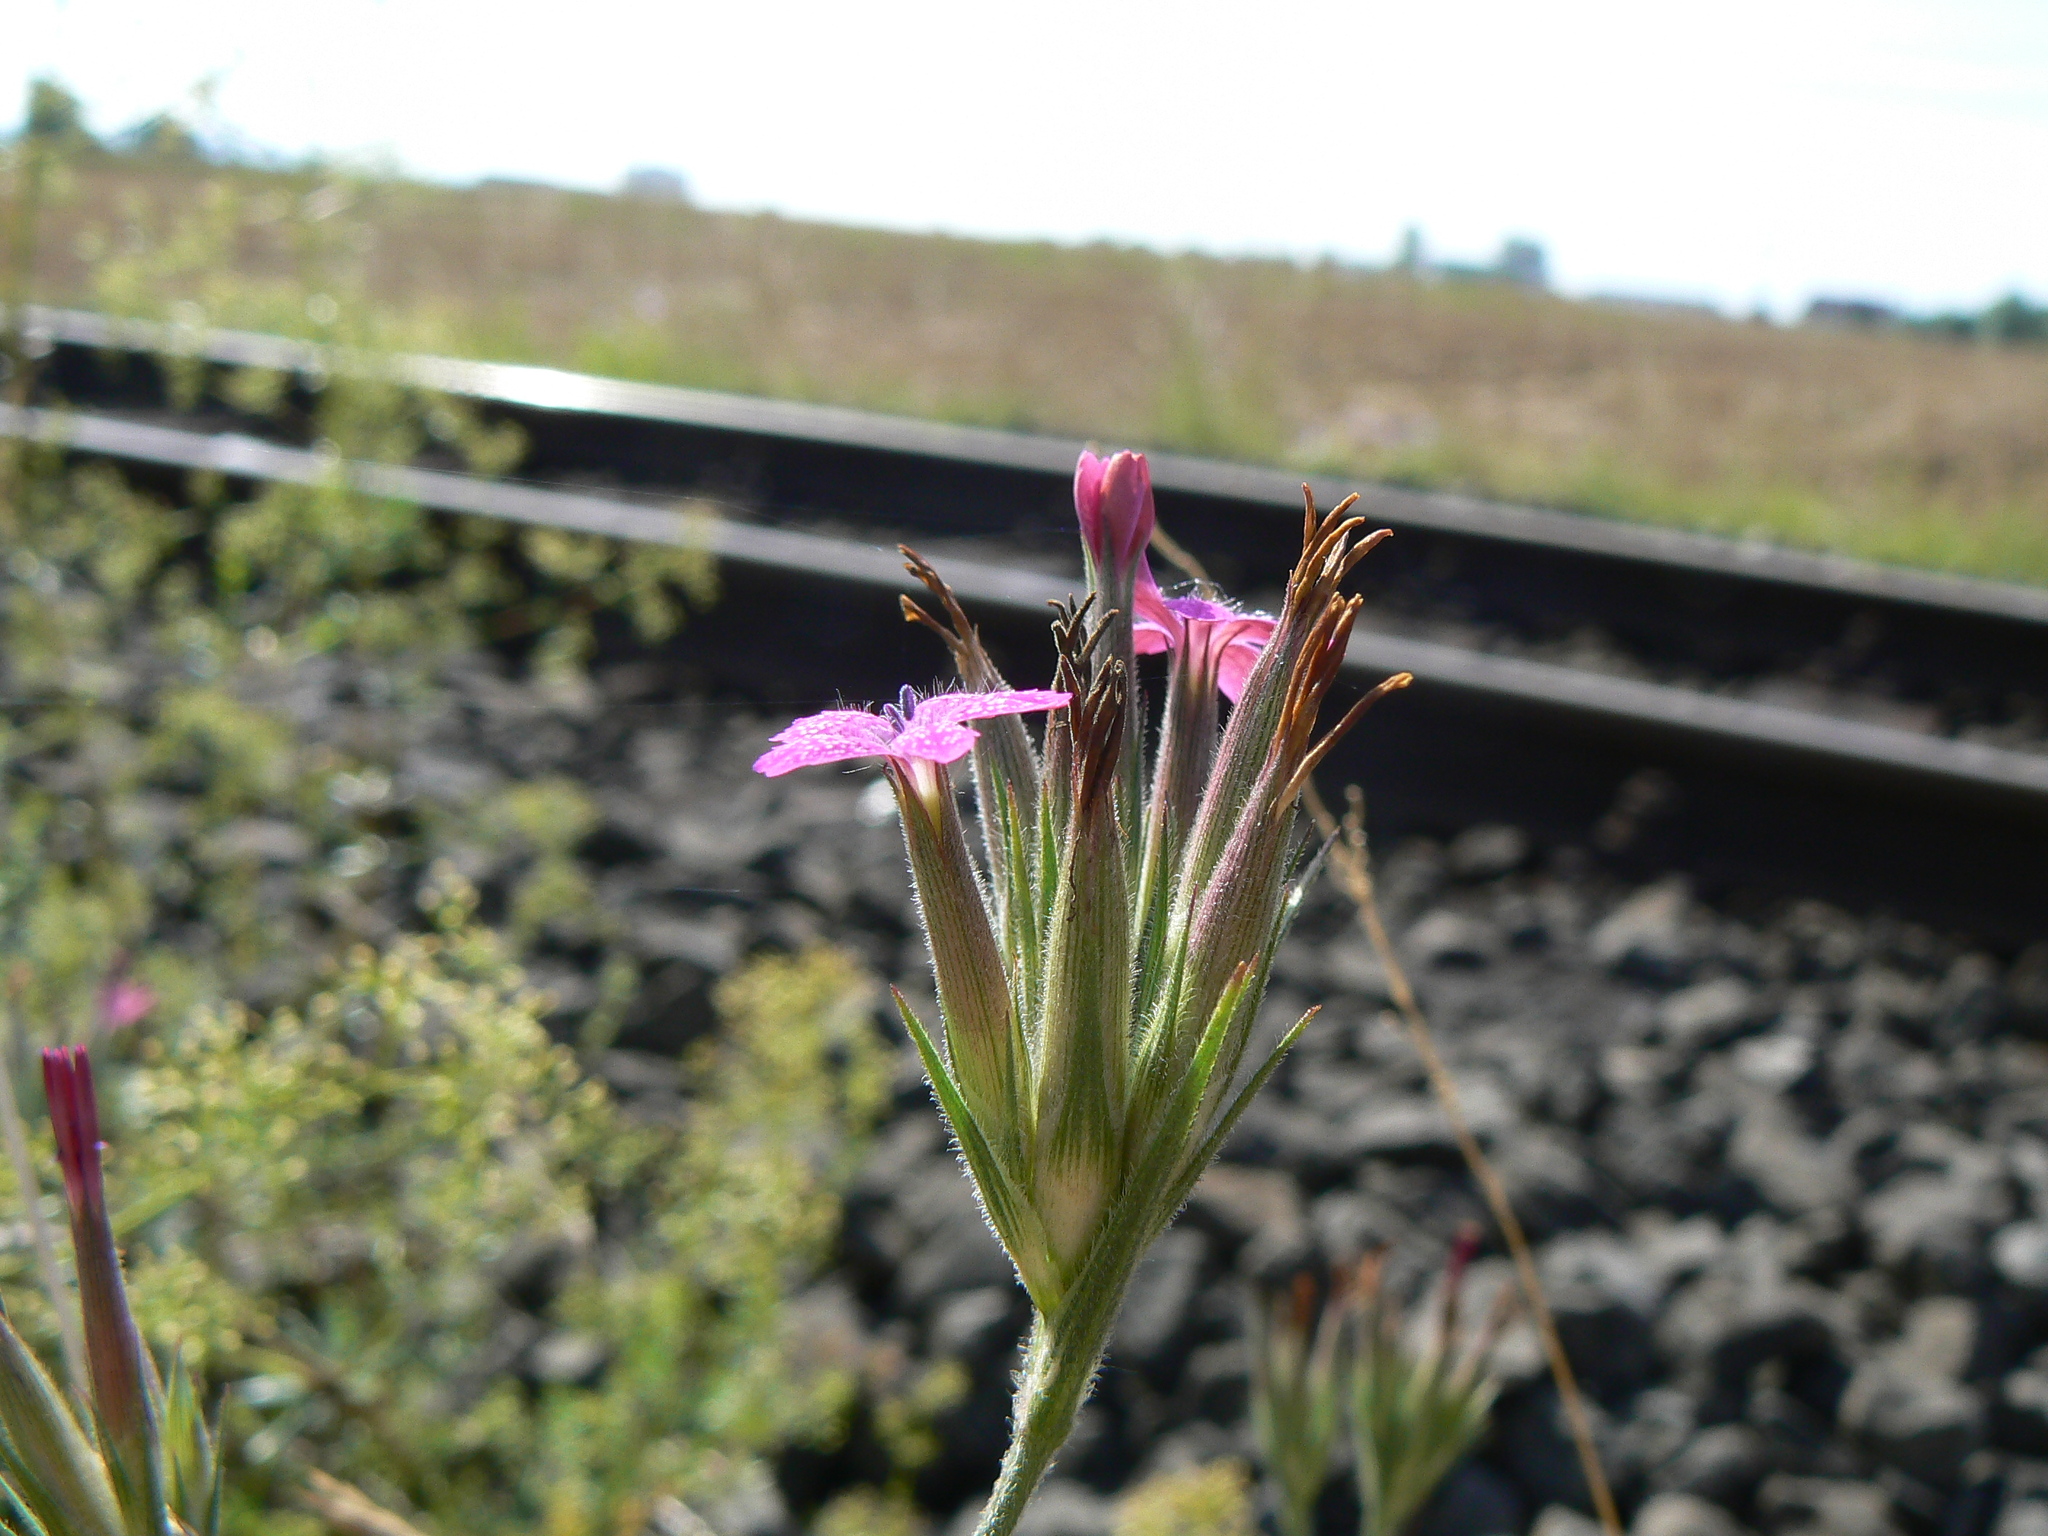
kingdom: Plantae
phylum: Tracheophyta
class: Magnoliopsida
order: Caryophyllales
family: Caryophyllaceae
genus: Dianthus
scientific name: Dianthus armeria
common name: Deptford pink
